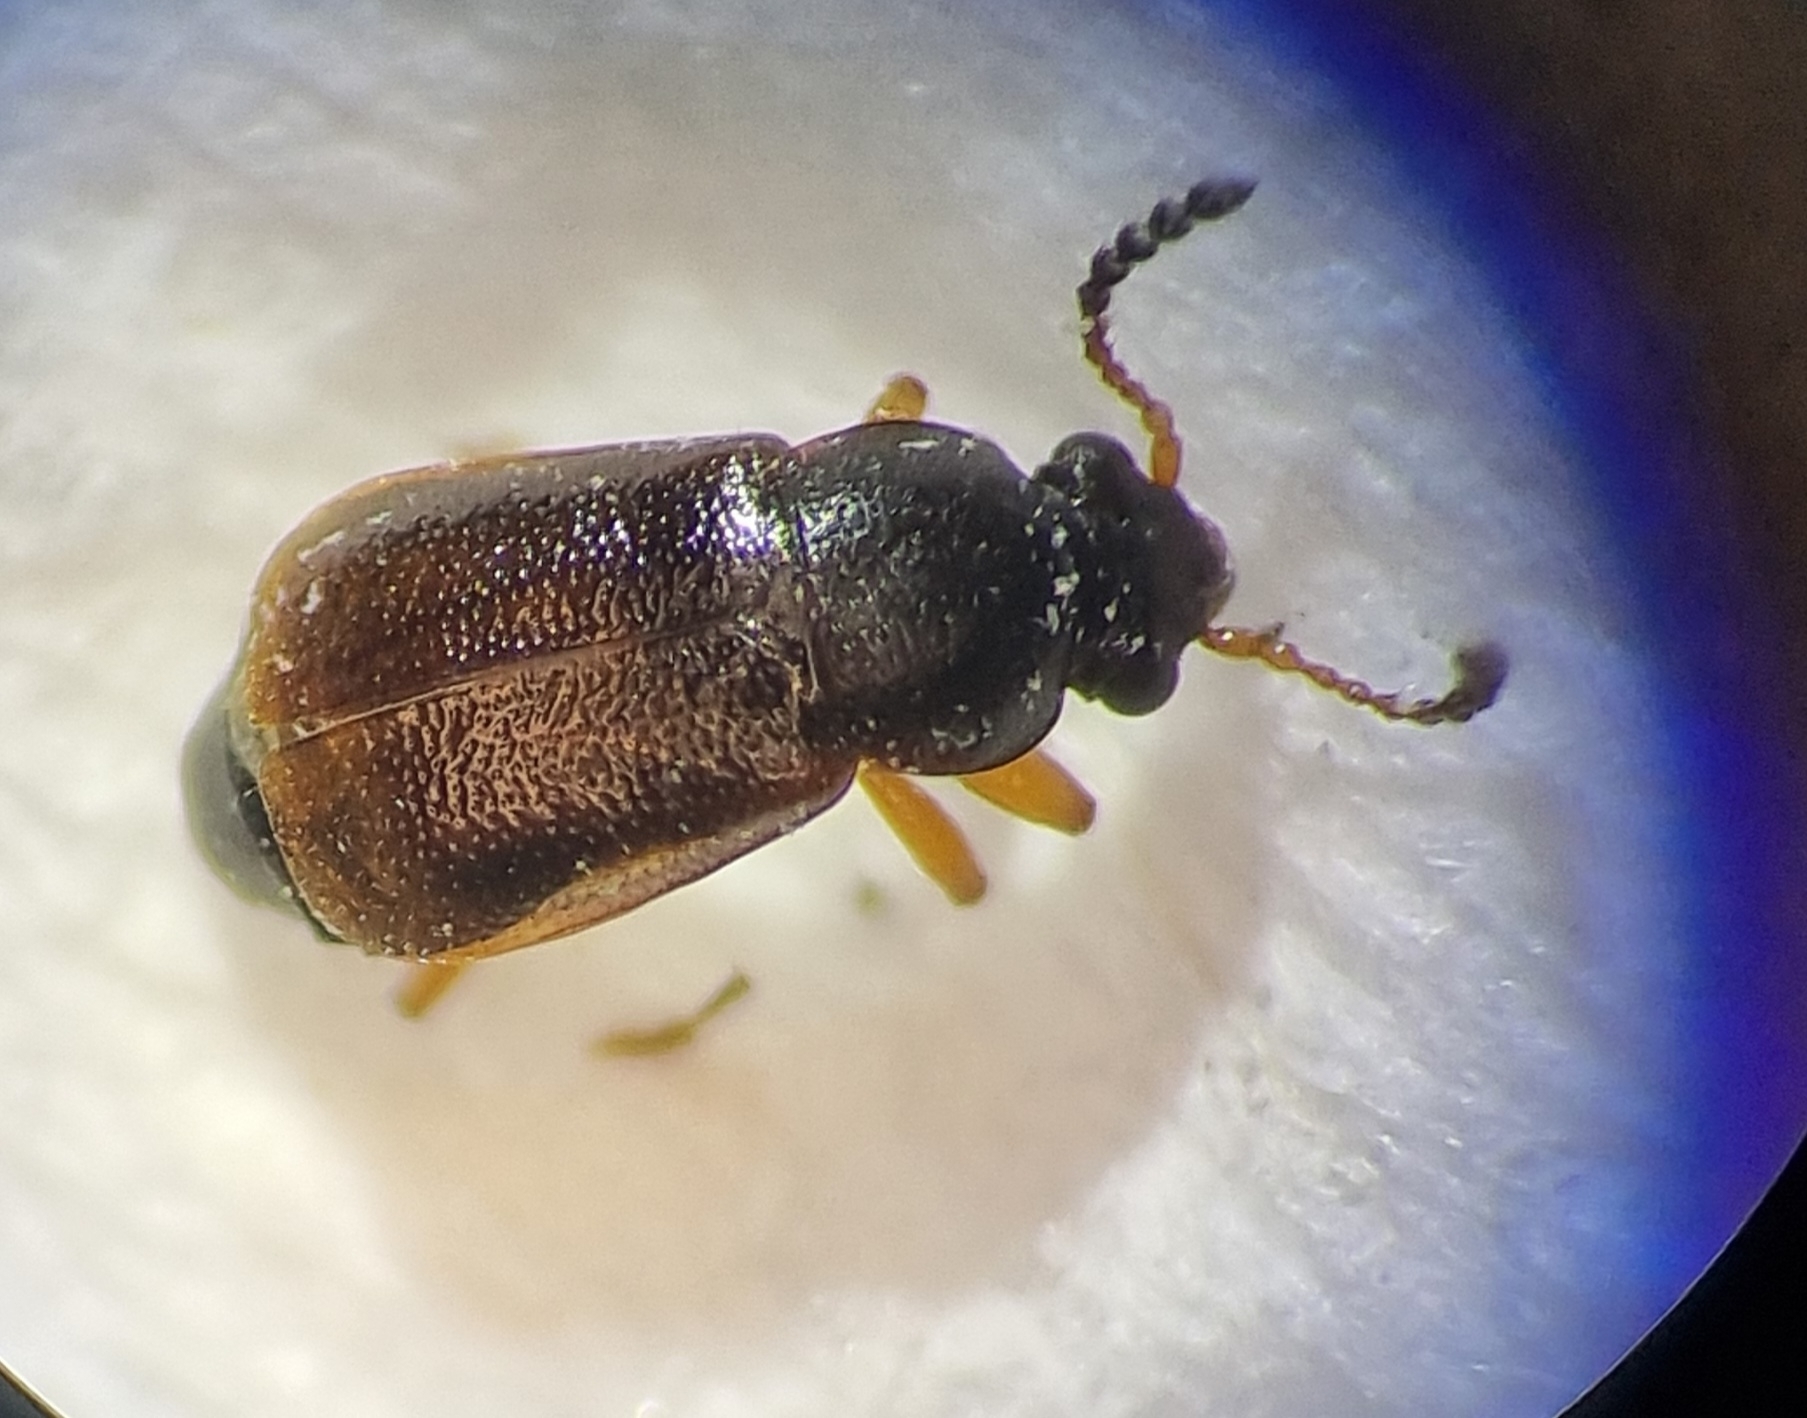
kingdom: Animalia
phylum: Arthropoda
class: Insecta
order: Coleoptera
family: Staphylinidae
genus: Eusphalerum
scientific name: Eusphalerum minutum
